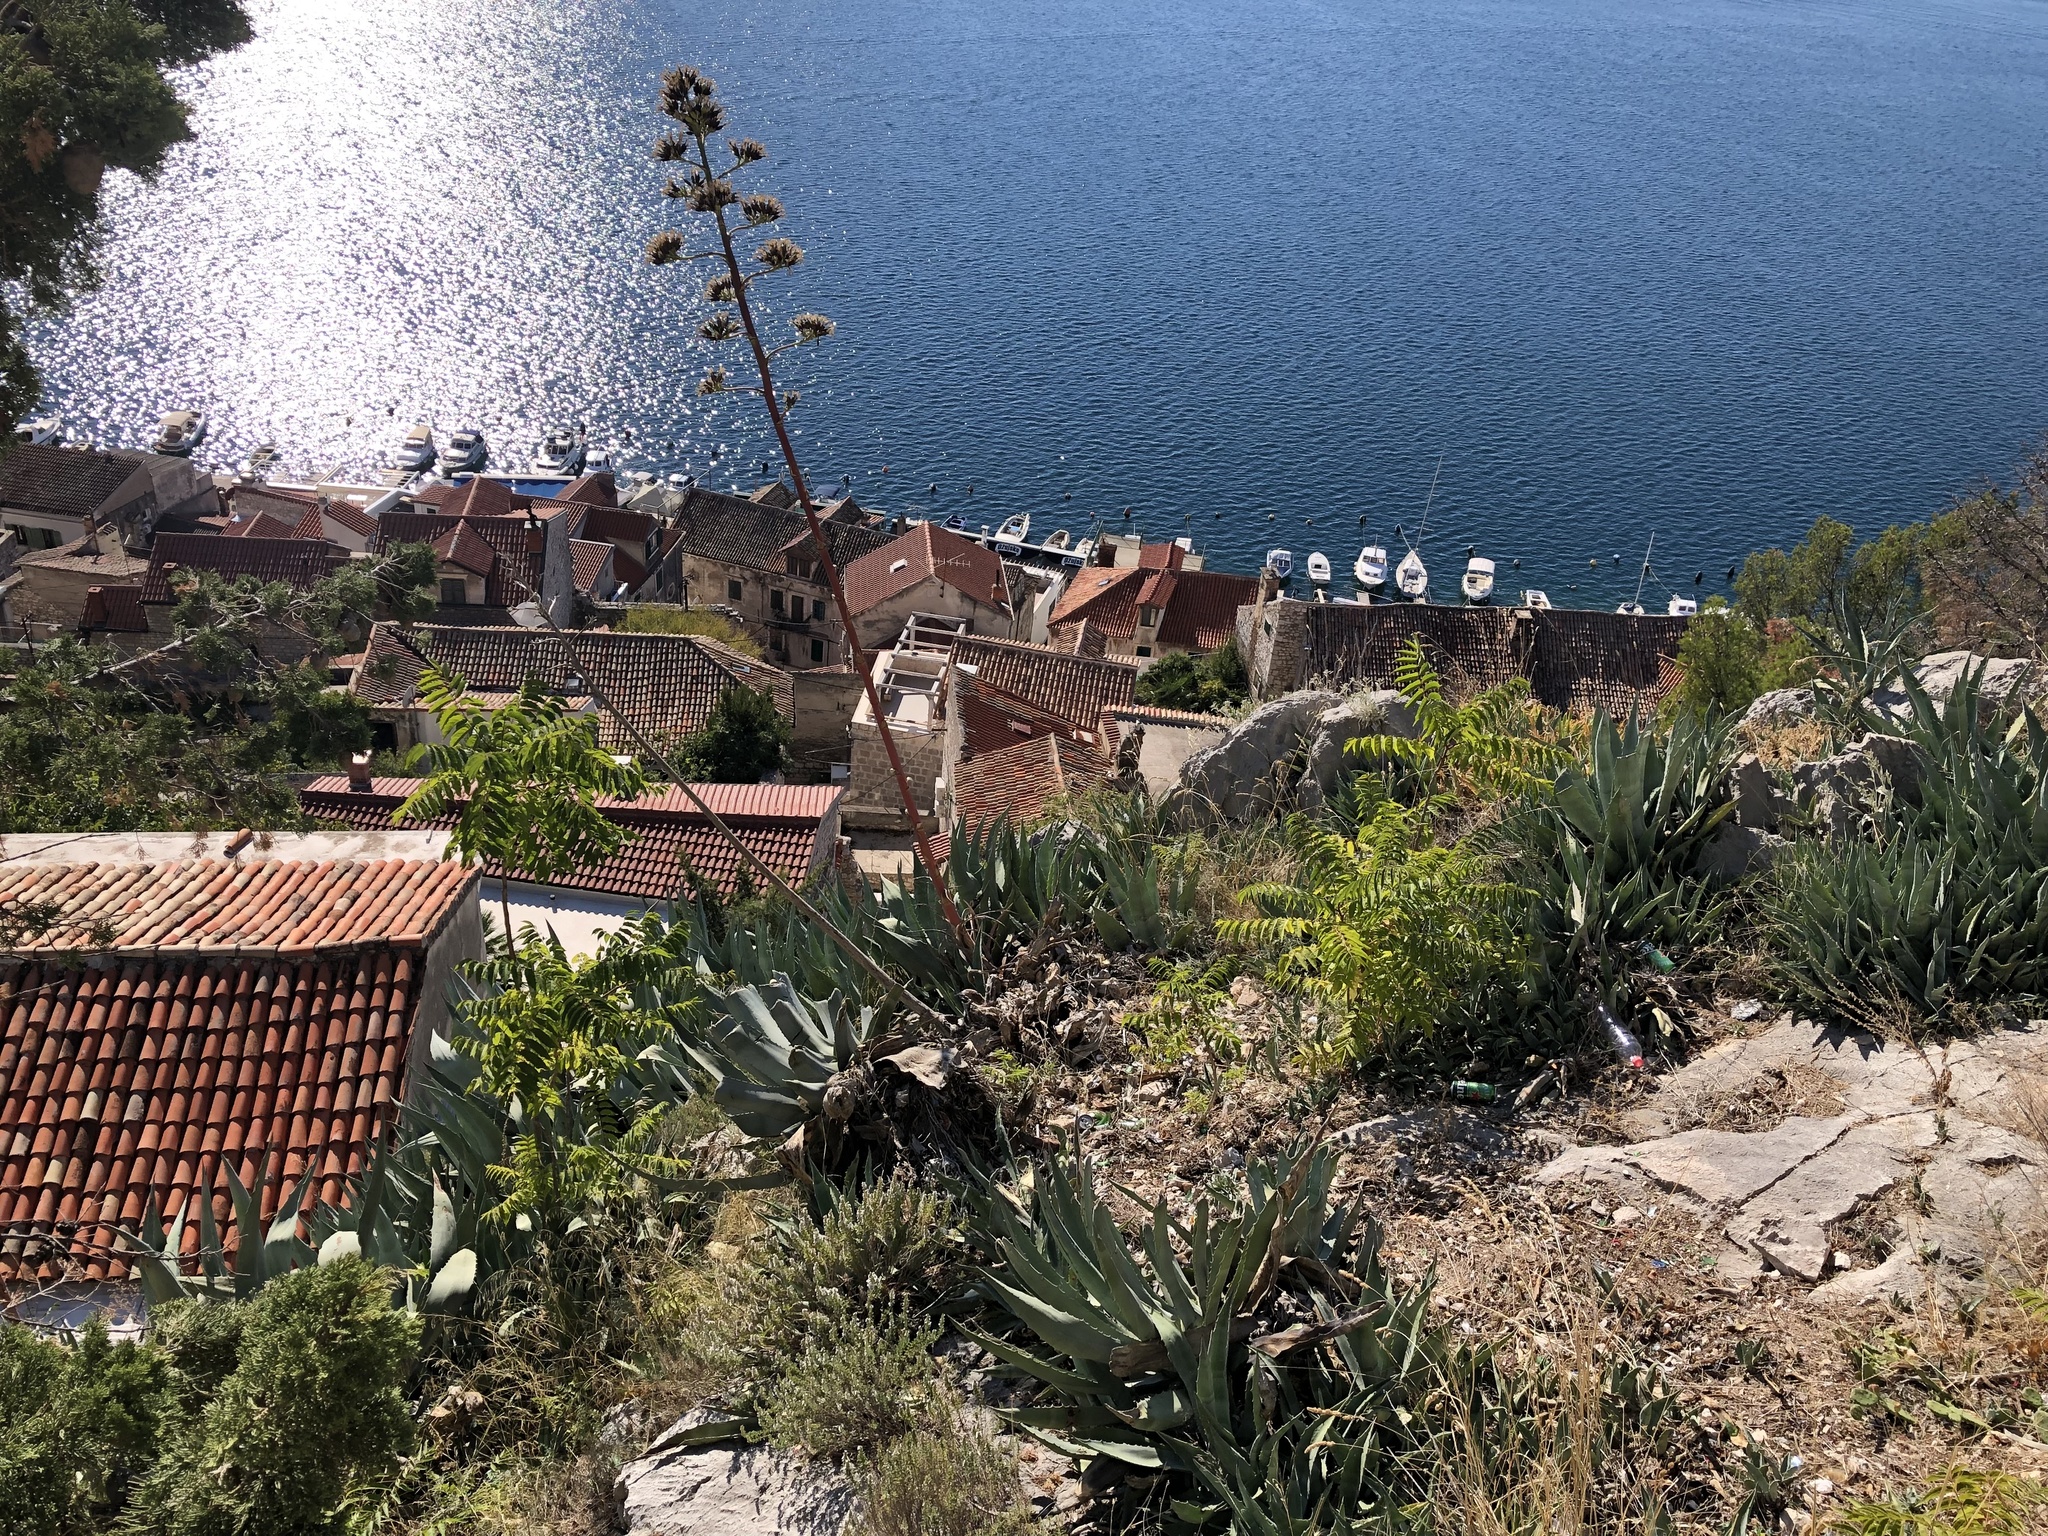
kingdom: Plantae
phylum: Tracheophyta
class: Liliopsida
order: Asparagales
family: Asparagaceae
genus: Agave
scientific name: Agave americana
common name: Centuryplant
